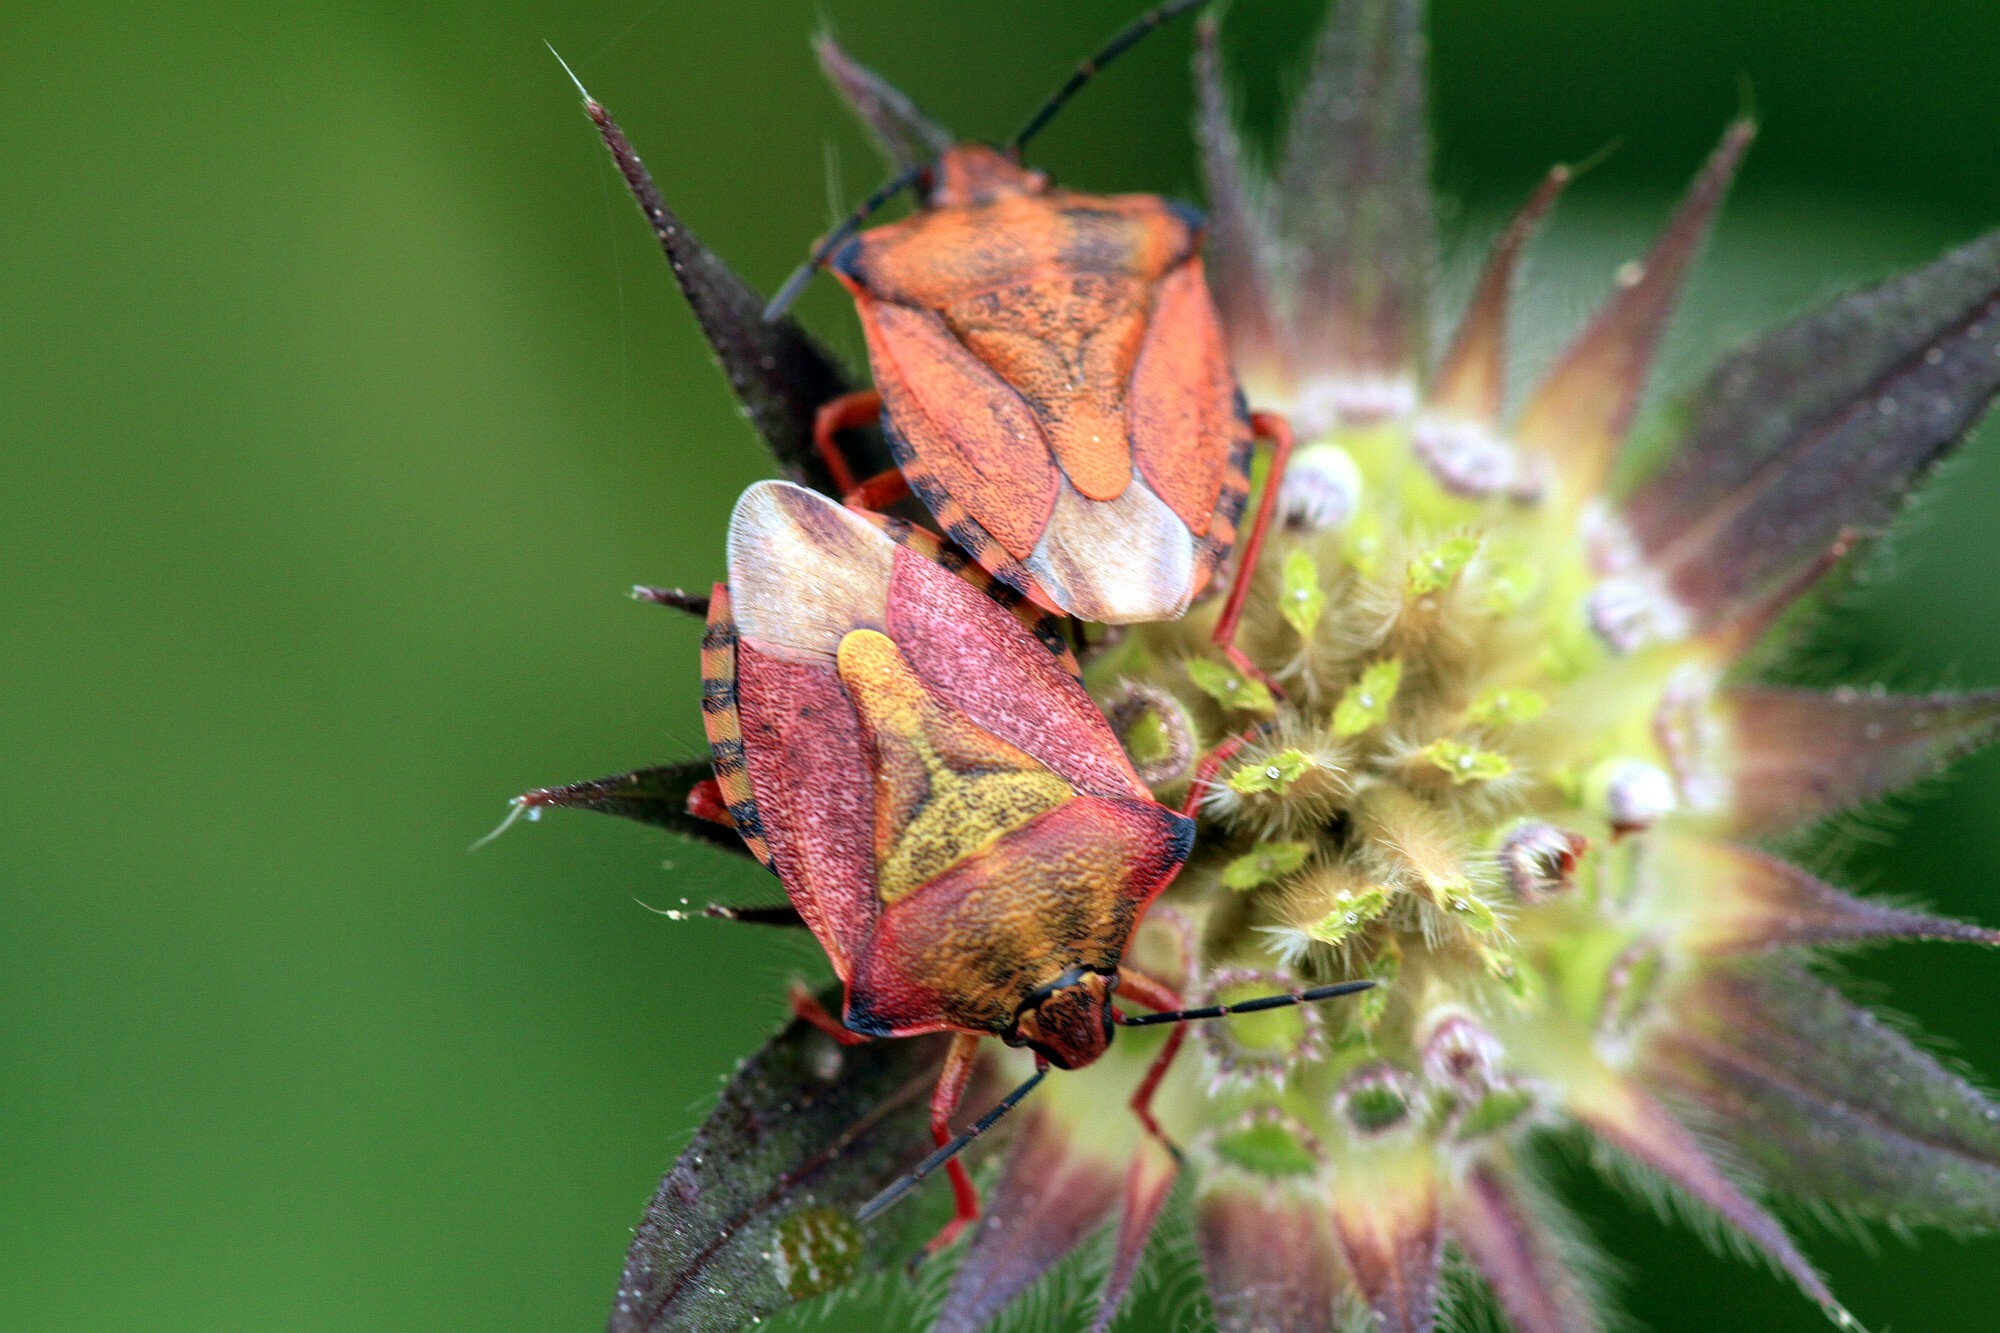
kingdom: Animalia
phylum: Arthropoda
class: Insecta
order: Hemiptera
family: Pentatomidae
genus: Carpocoris
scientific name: Carpocoris mediterraneus
